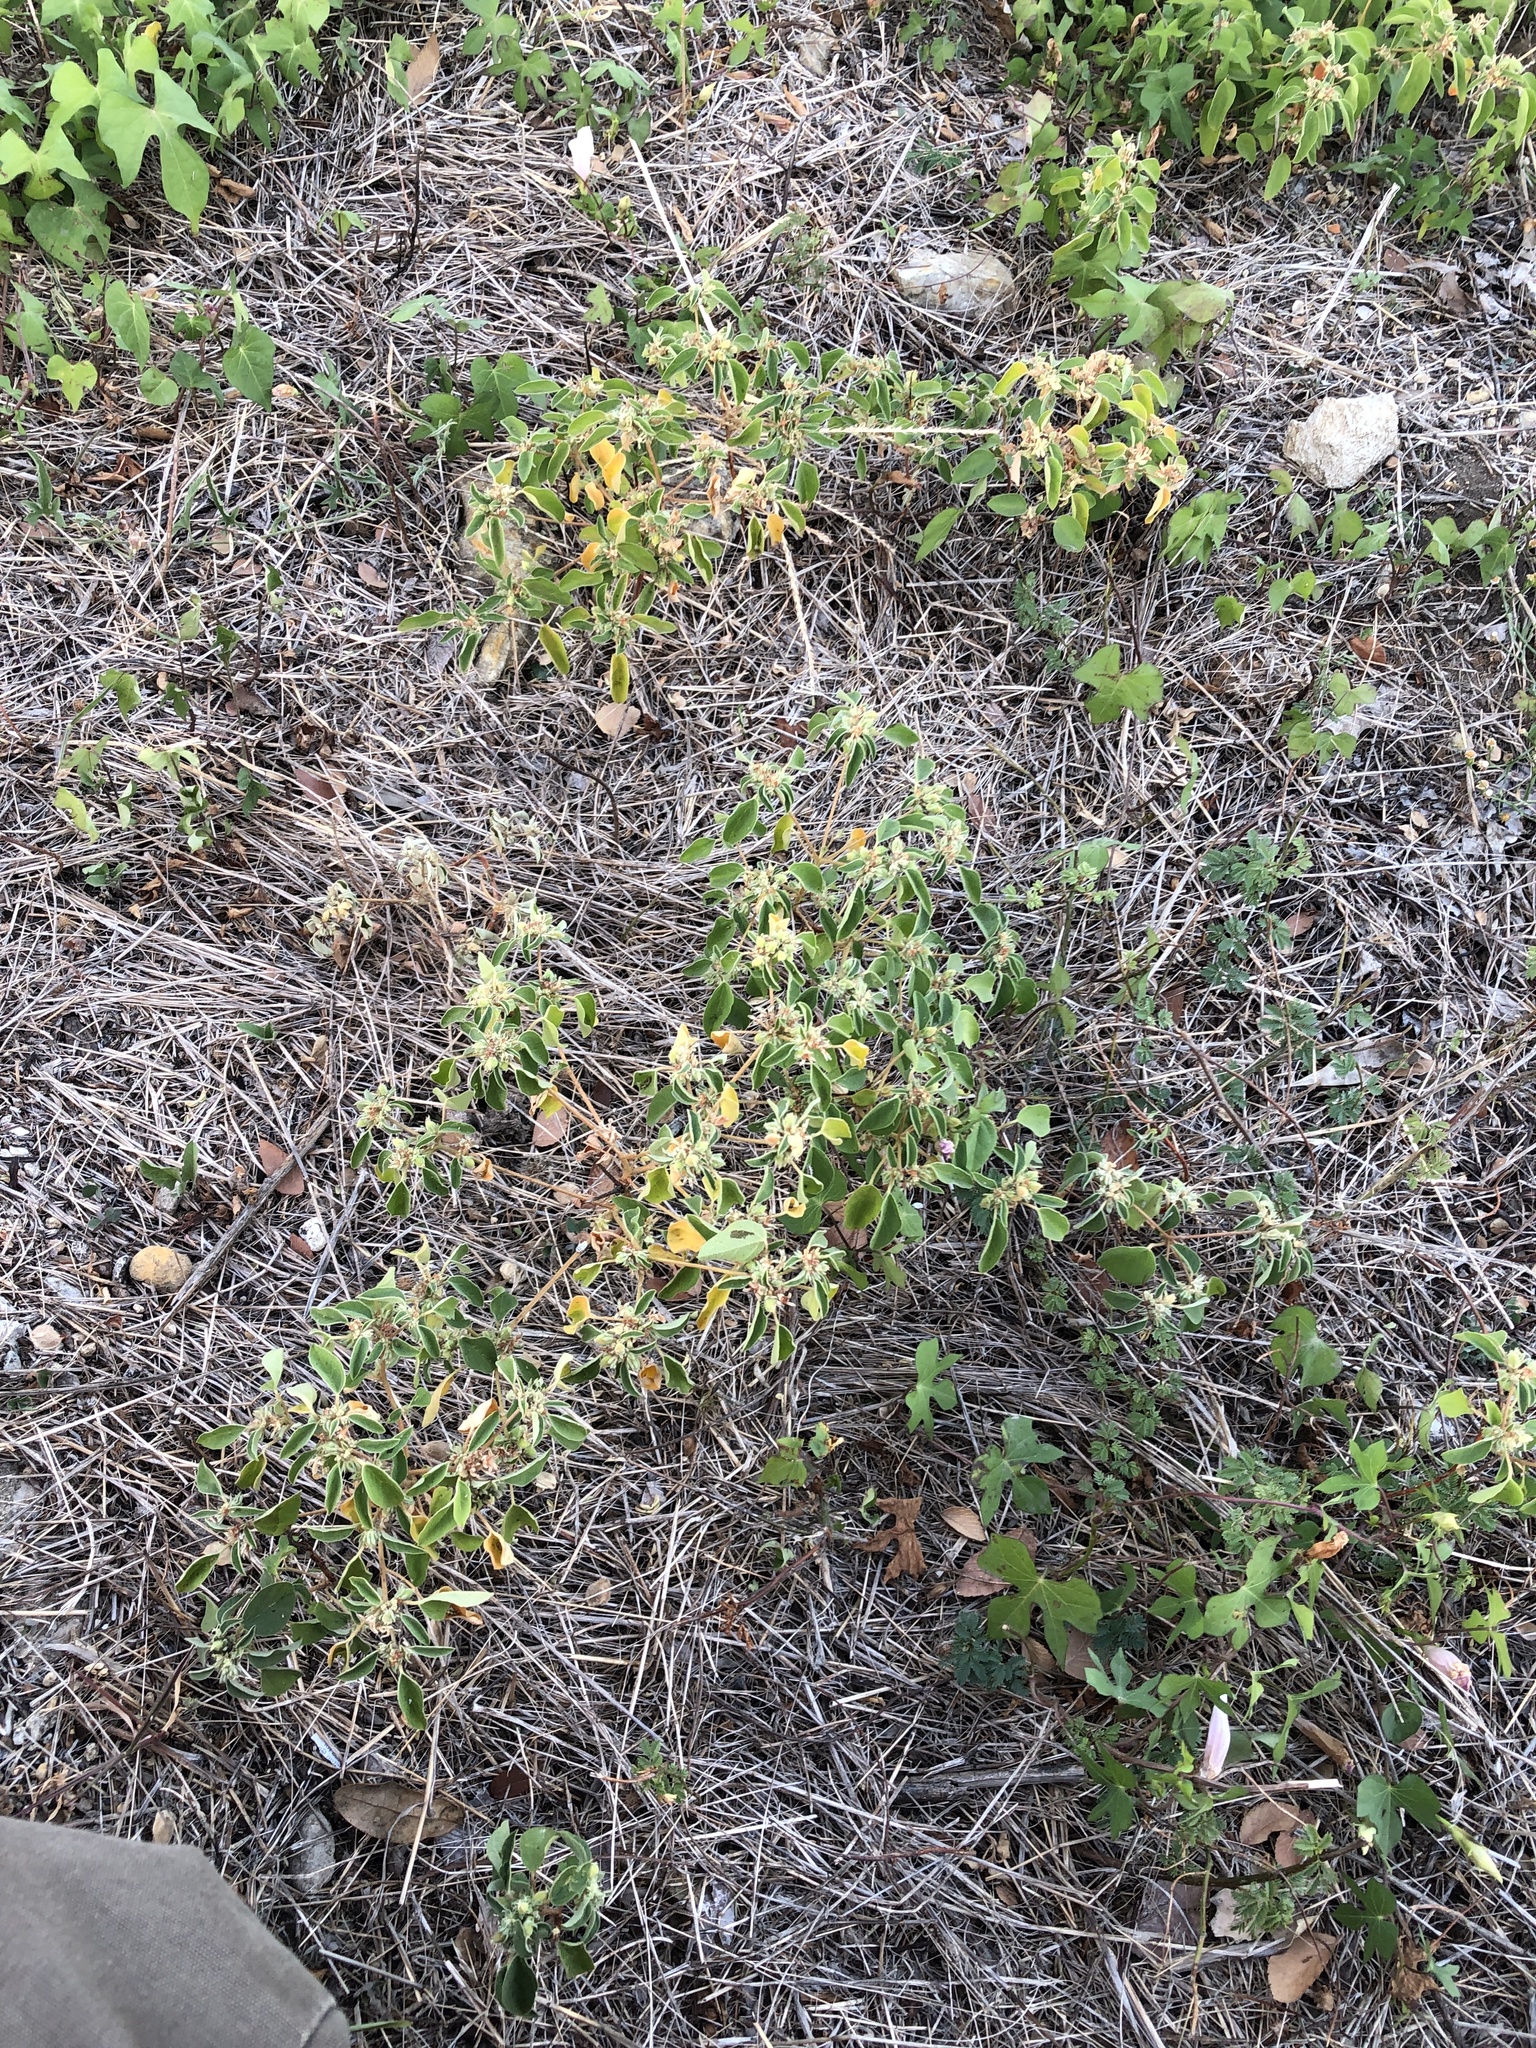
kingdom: Plantae
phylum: Tracheophyta
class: Magnoliopsida
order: Malpighiales
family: Euphorbiaceae
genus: Croton
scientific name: Croton monanthogynus
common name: One-seed croton
